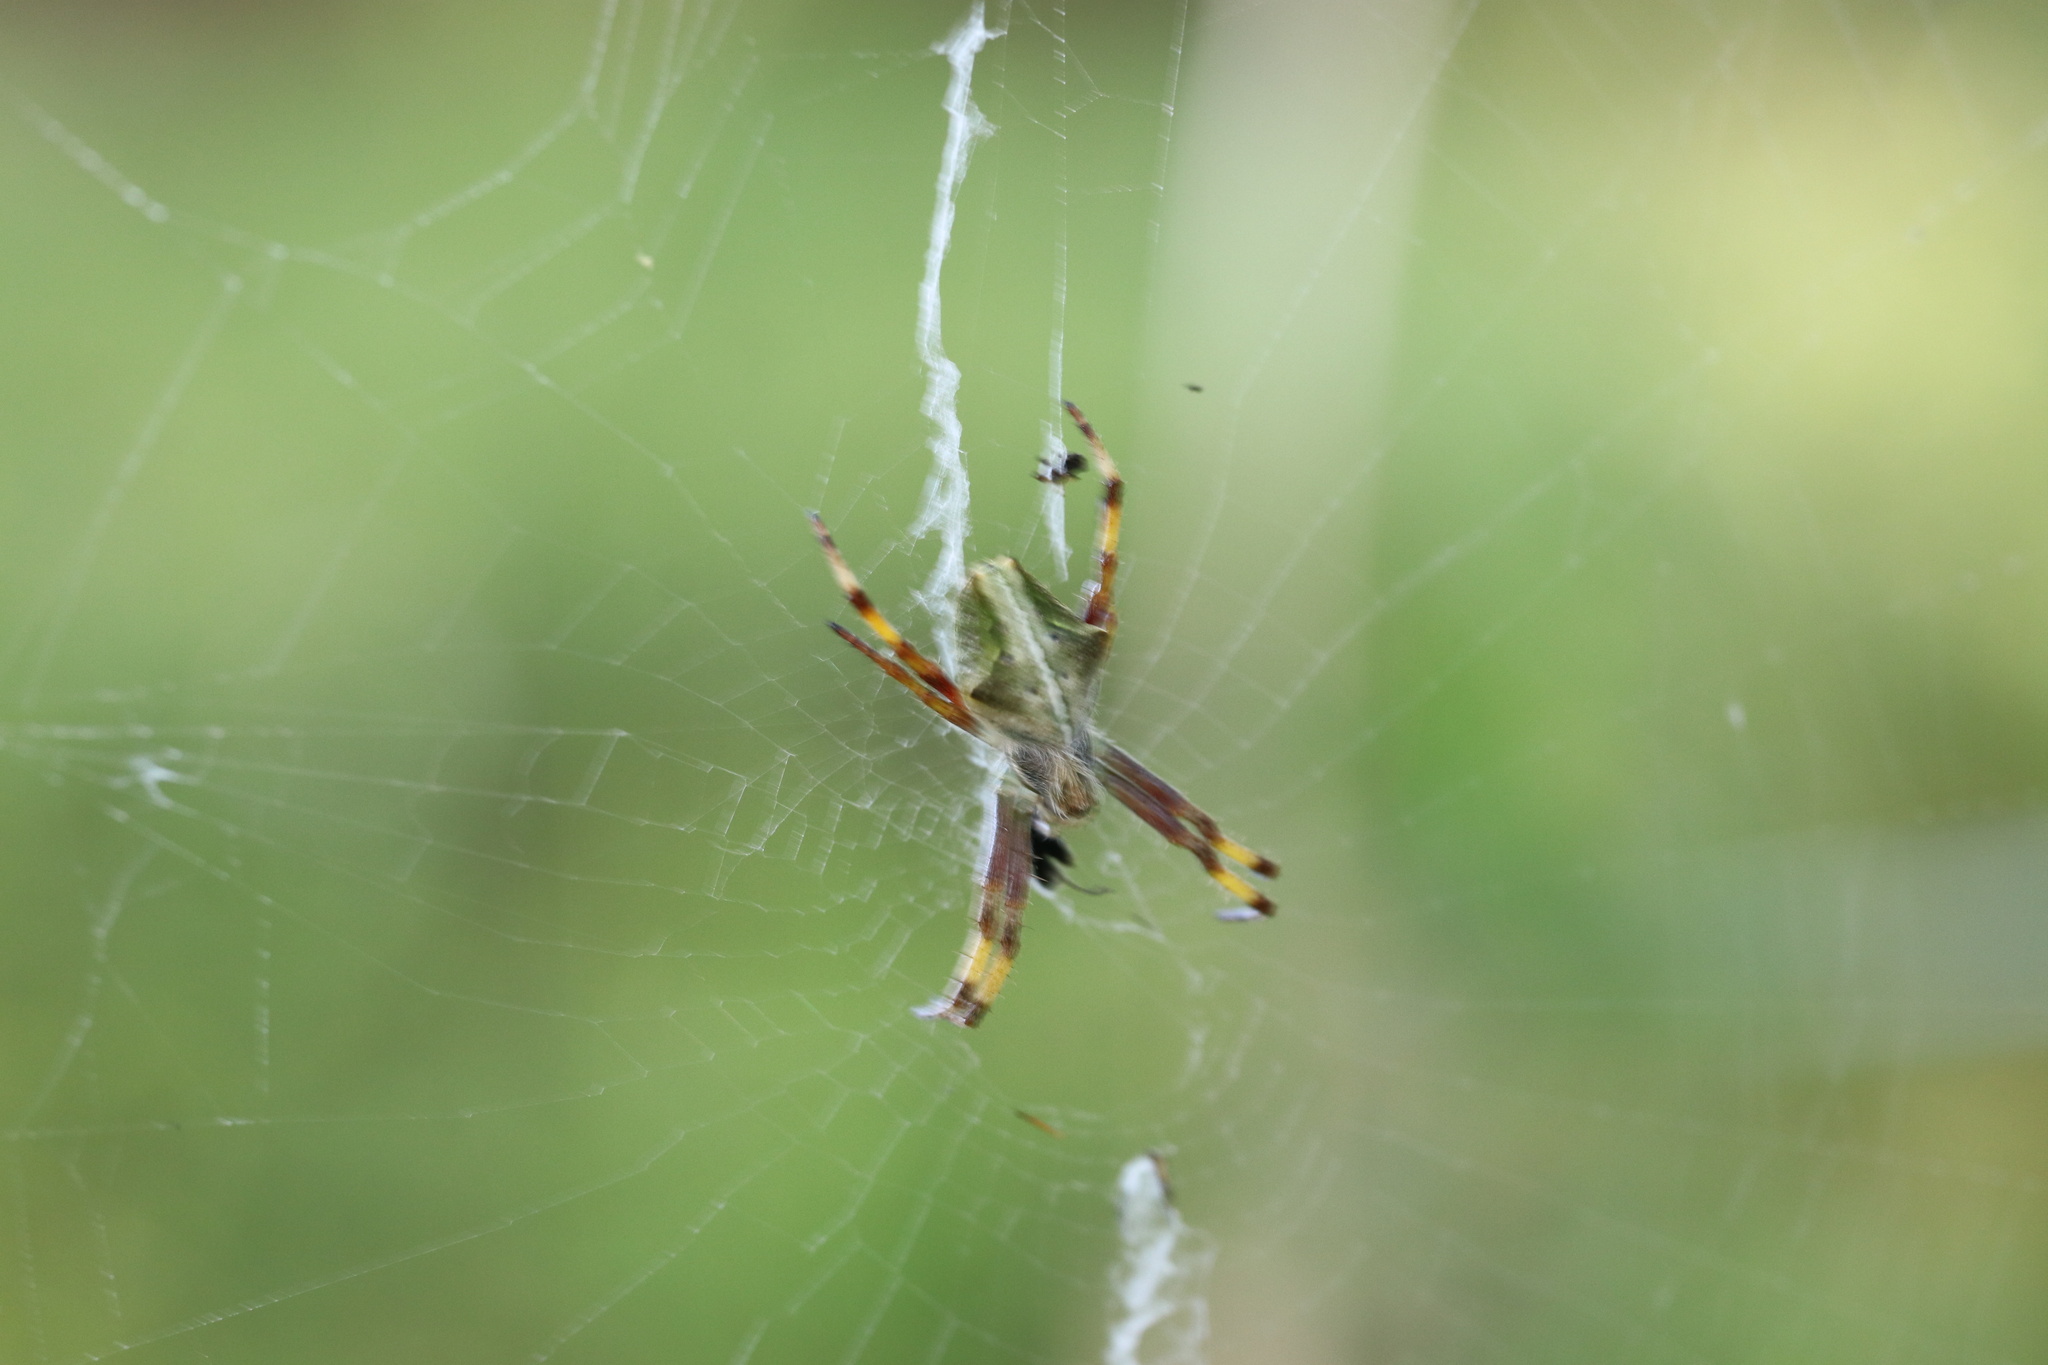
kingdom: Animalia
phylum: Arthropoda
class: Arachnida
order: Araneae
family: Araneidae
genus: Molinaranea
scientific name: Molinaranea magellanica
